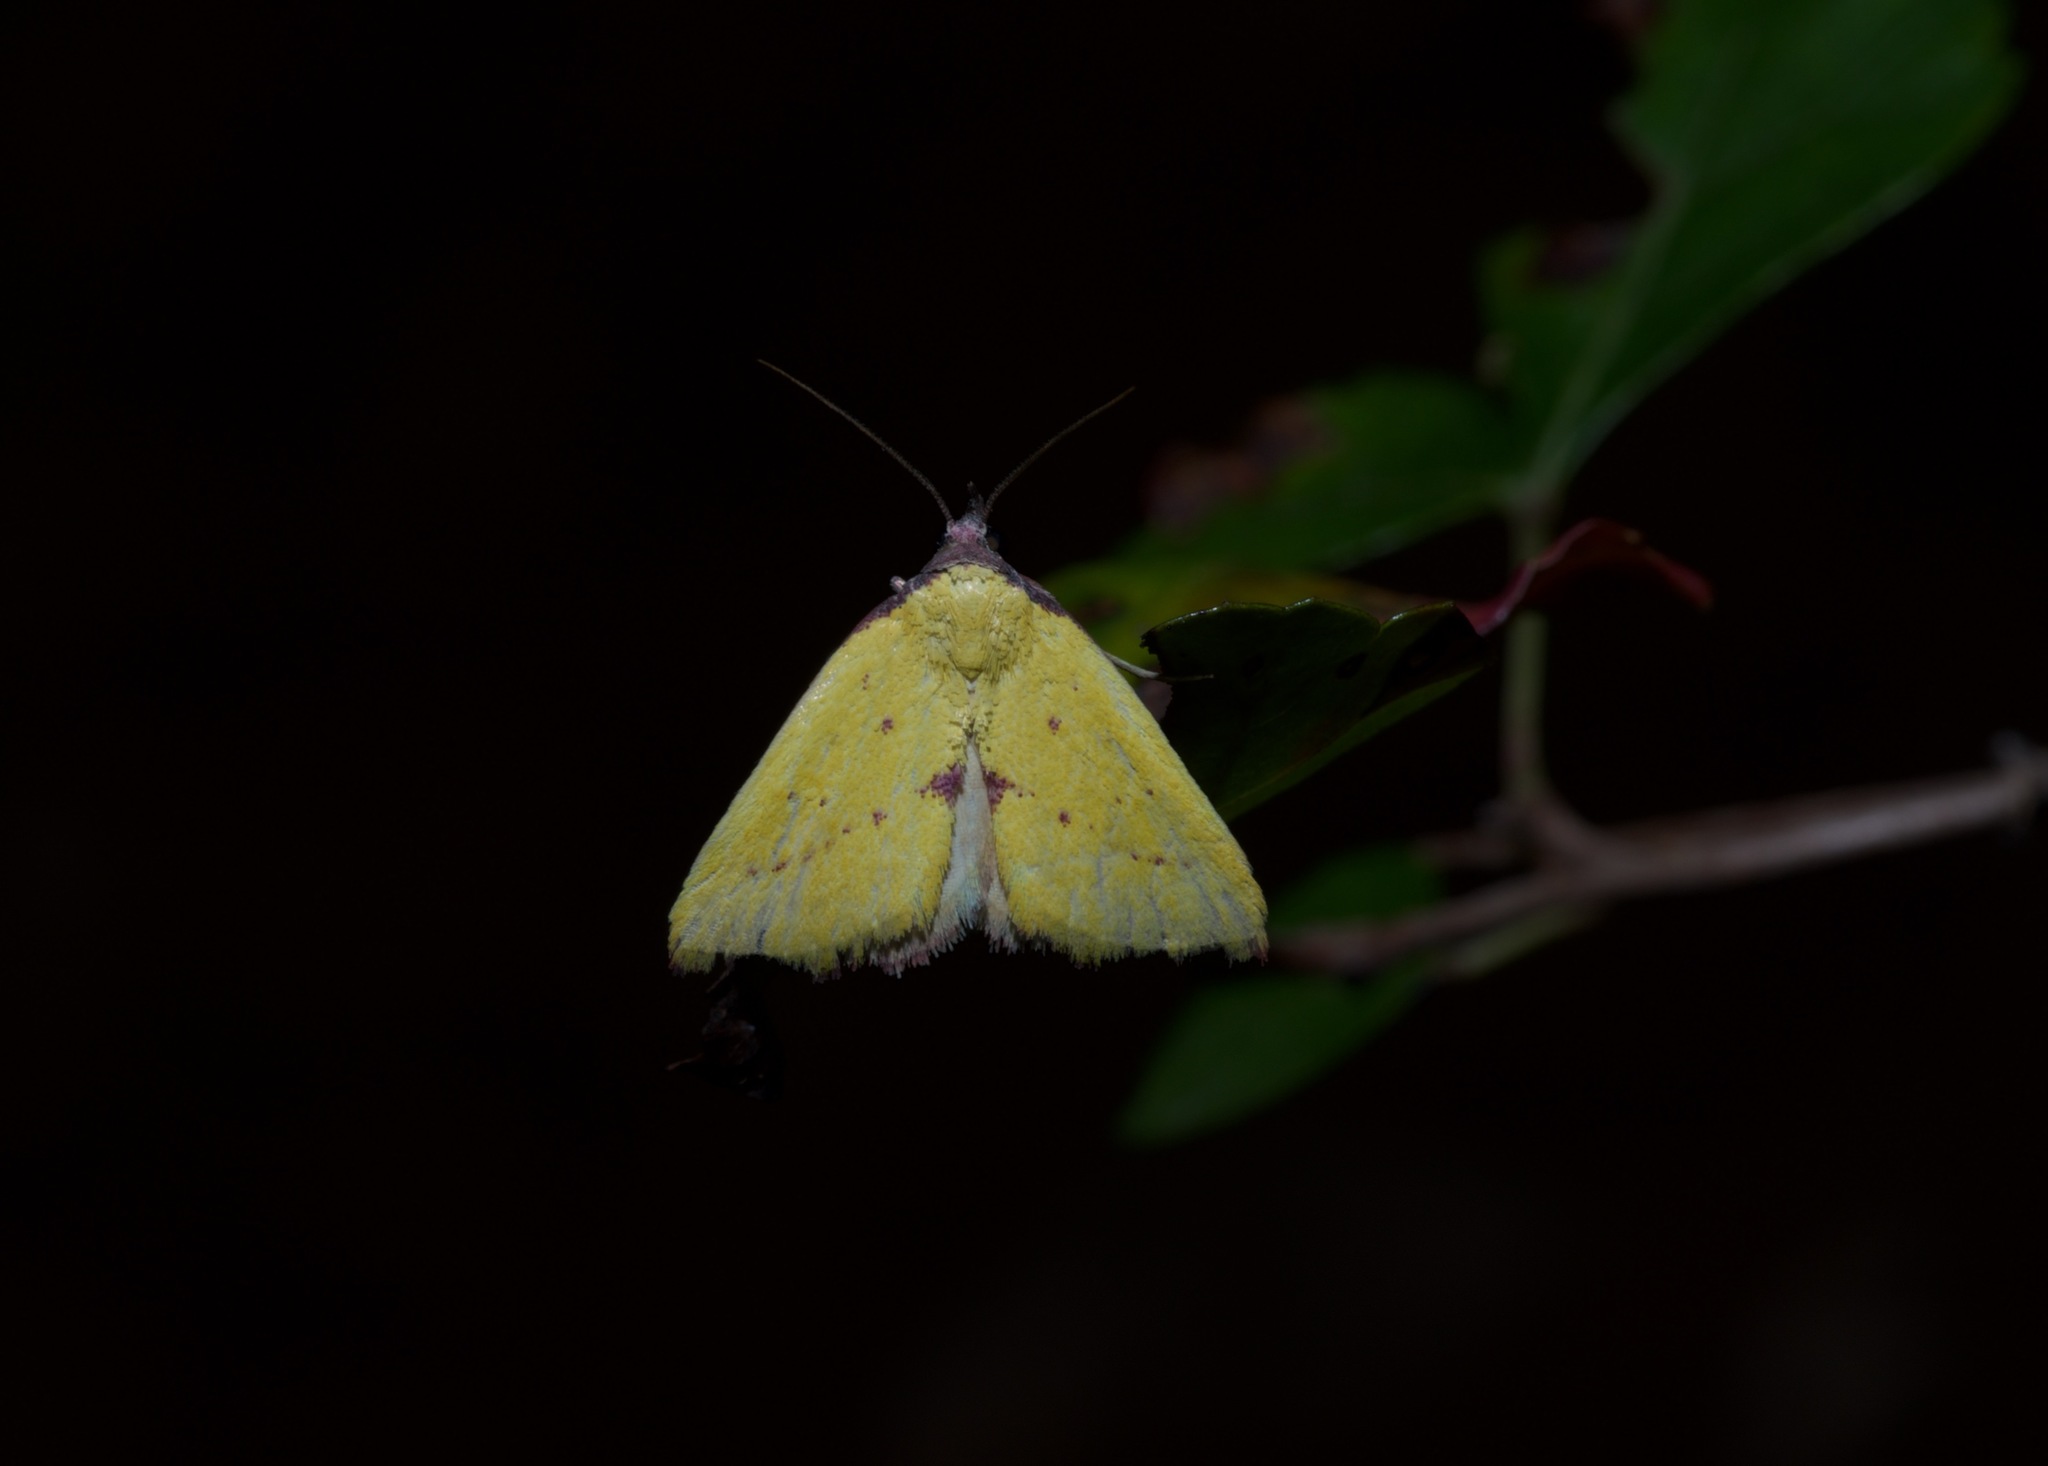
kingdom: Animalia
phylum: Arthropoda
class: Insecta
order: Lepidoptera
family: Erebidae
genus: Phytometra
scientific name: Phytometra orgiae
